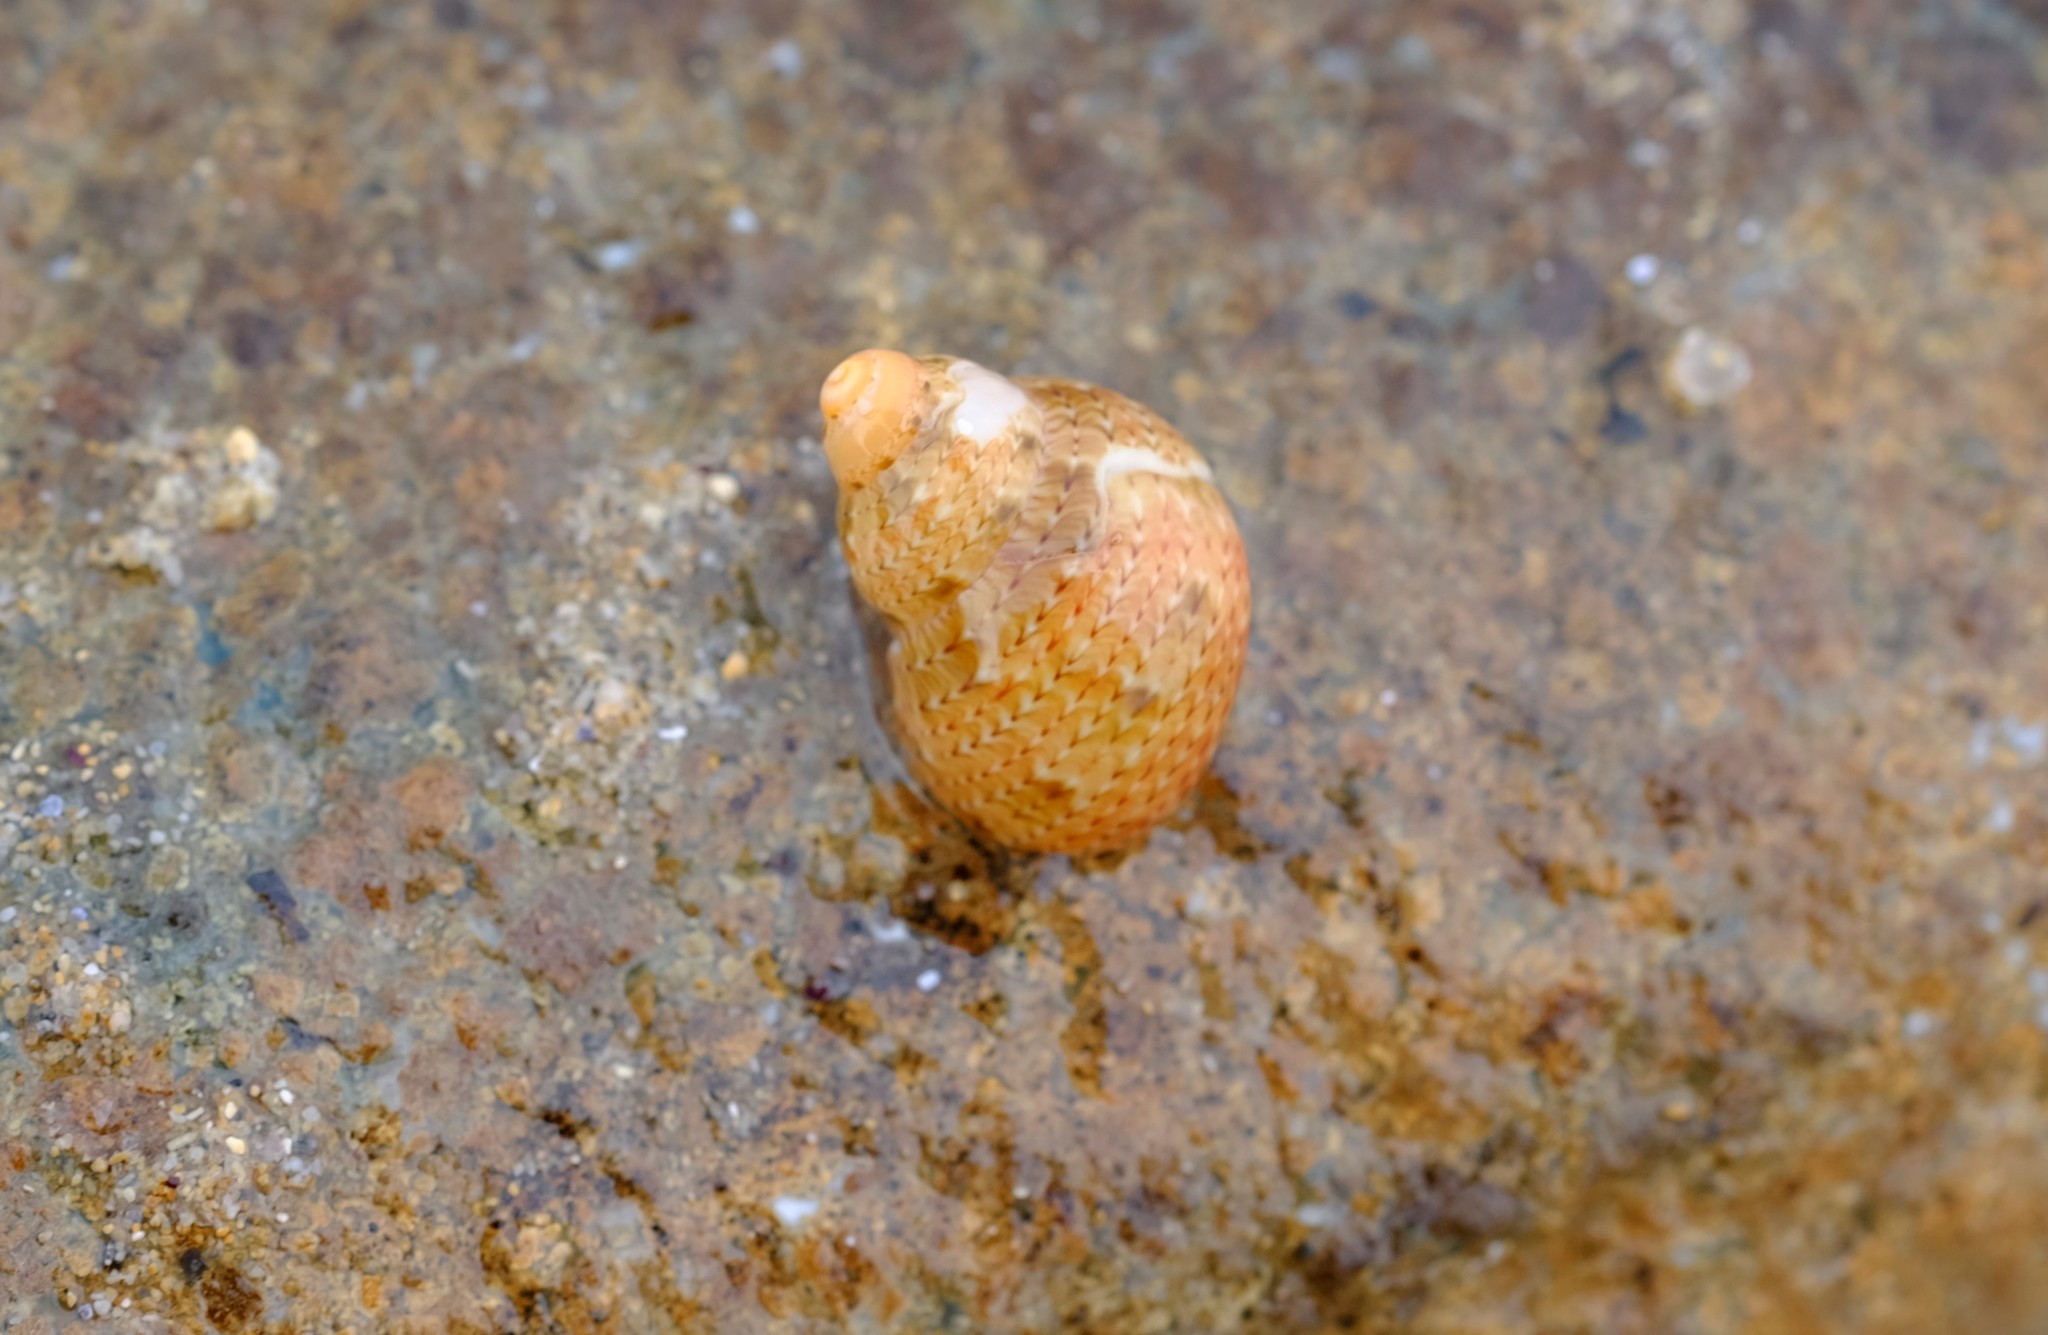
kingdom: Animalia
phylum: Mollusca
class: Gastropoda
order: Trochida
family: Phasianellidae
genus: Phasianella
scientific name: Phasianella solida
